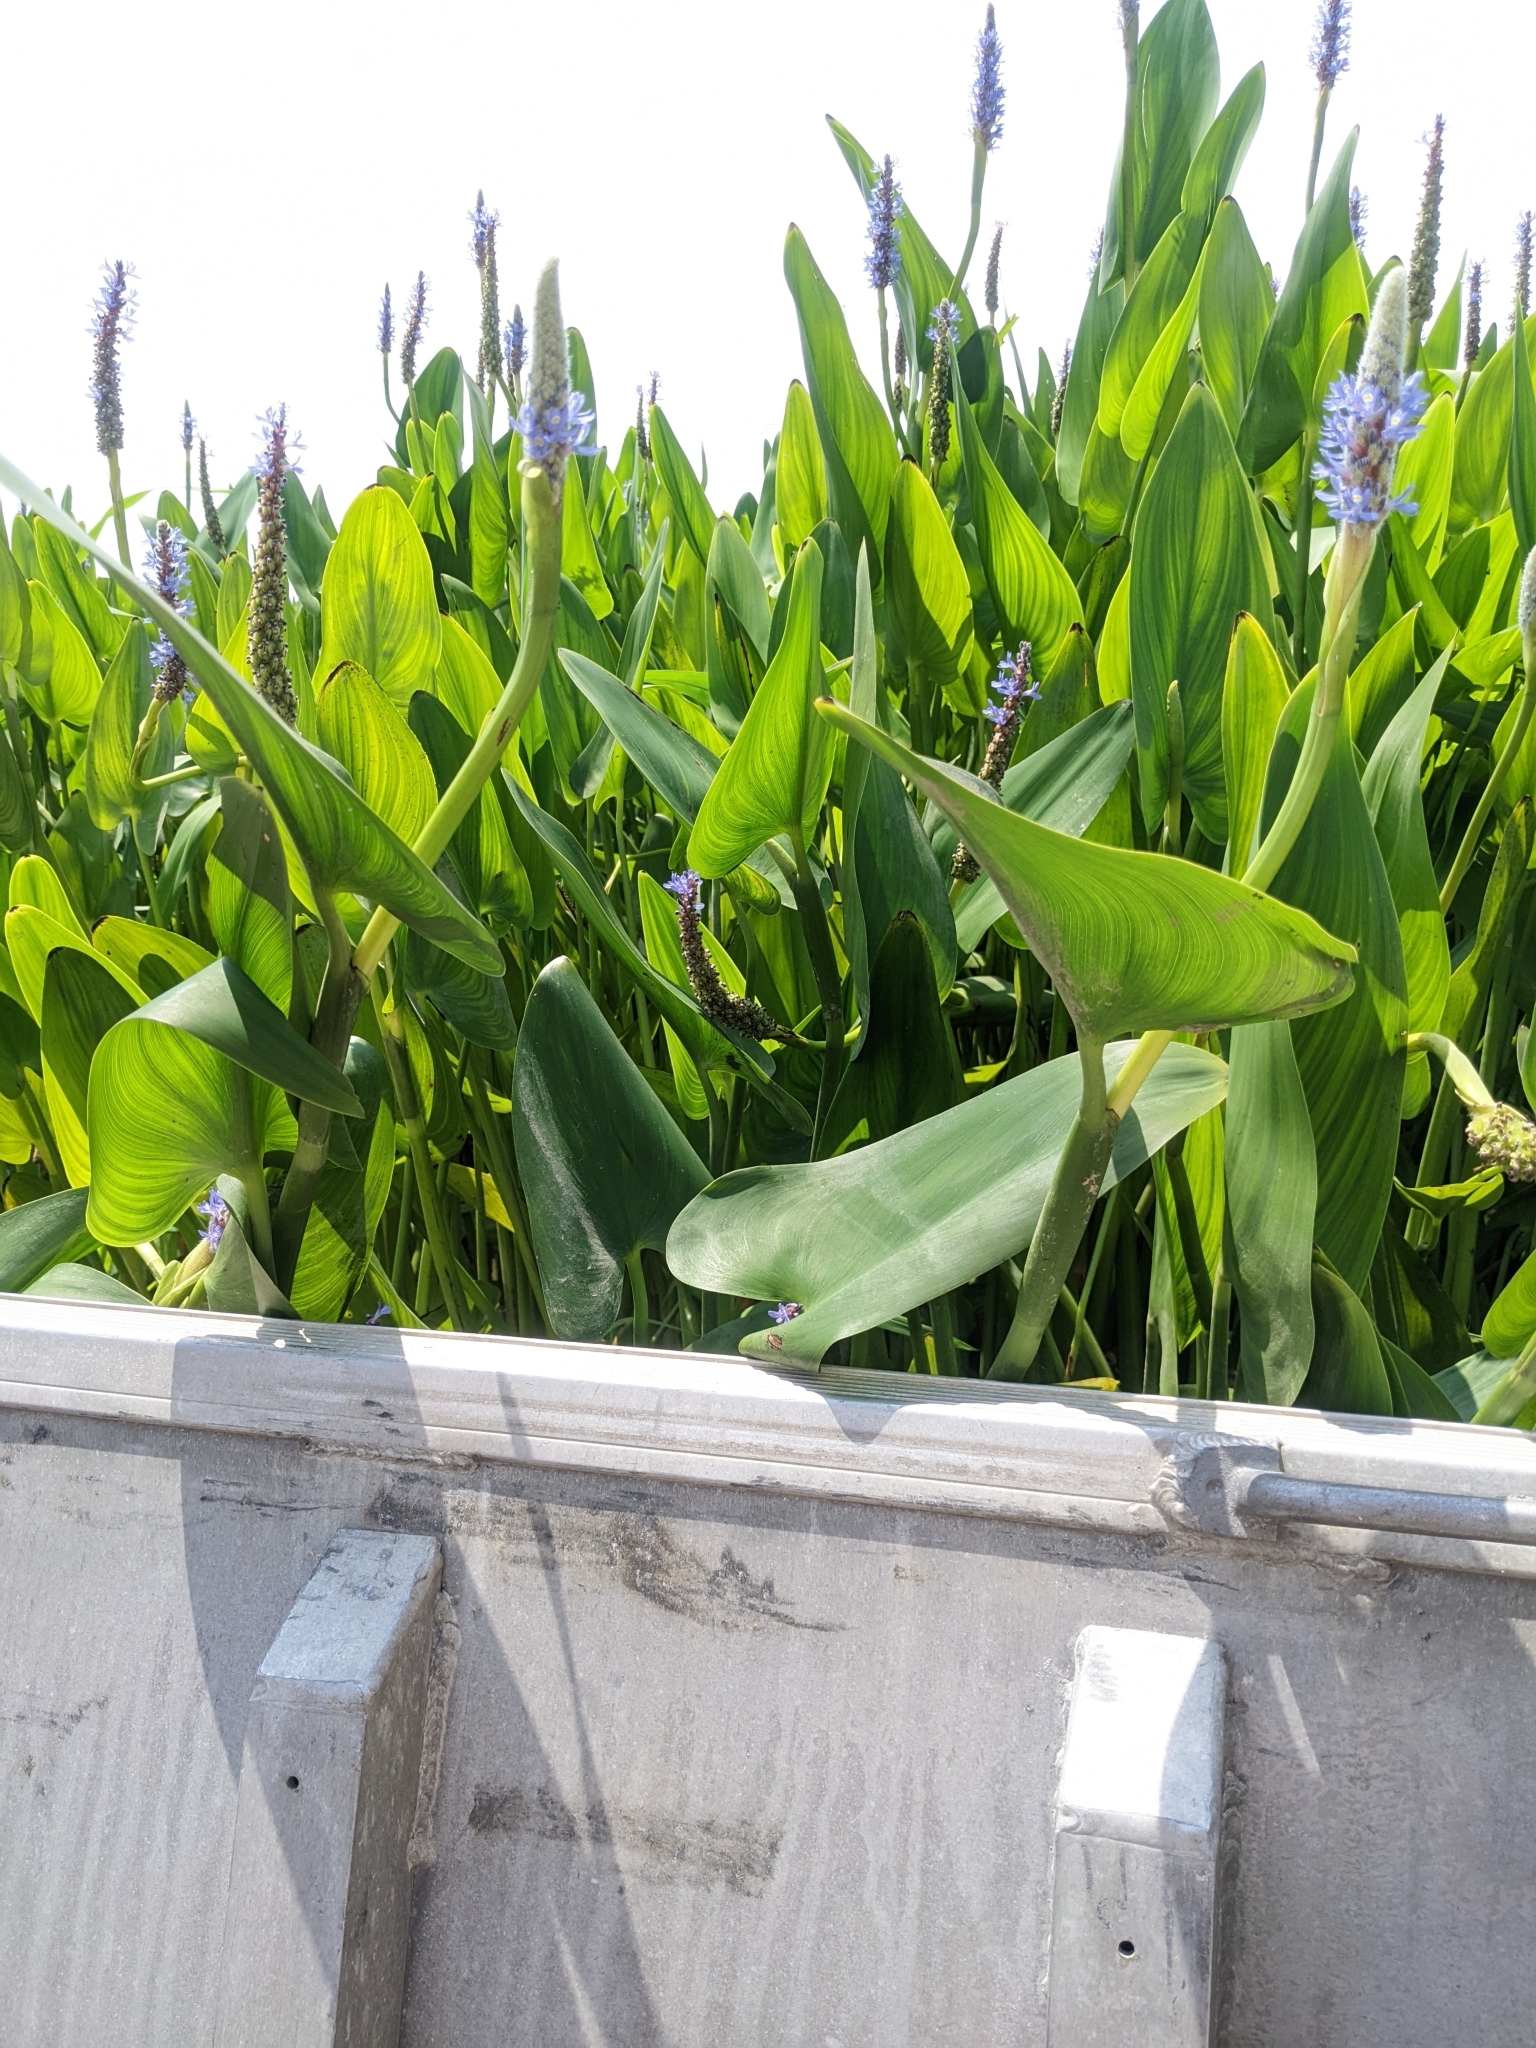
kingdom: Plantae
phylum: Tracheophyta
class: Liliopsida
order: Commelinales
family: Pontederiaceae
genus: Pontederia
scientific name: Pontederia cordata
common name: Pickerelweed
